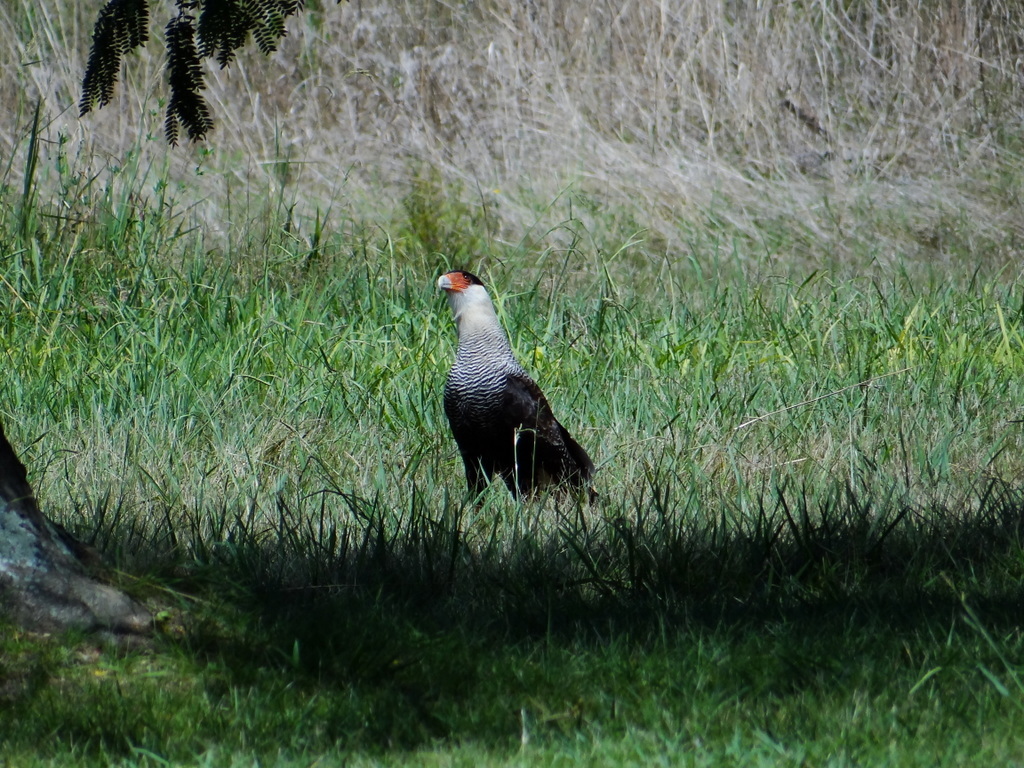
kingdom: Animalia
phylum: Chordata
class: Aves
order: Falconiformes
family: Falconidae
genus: Caracara
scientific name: Caracara plancus
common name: Southern caracara
